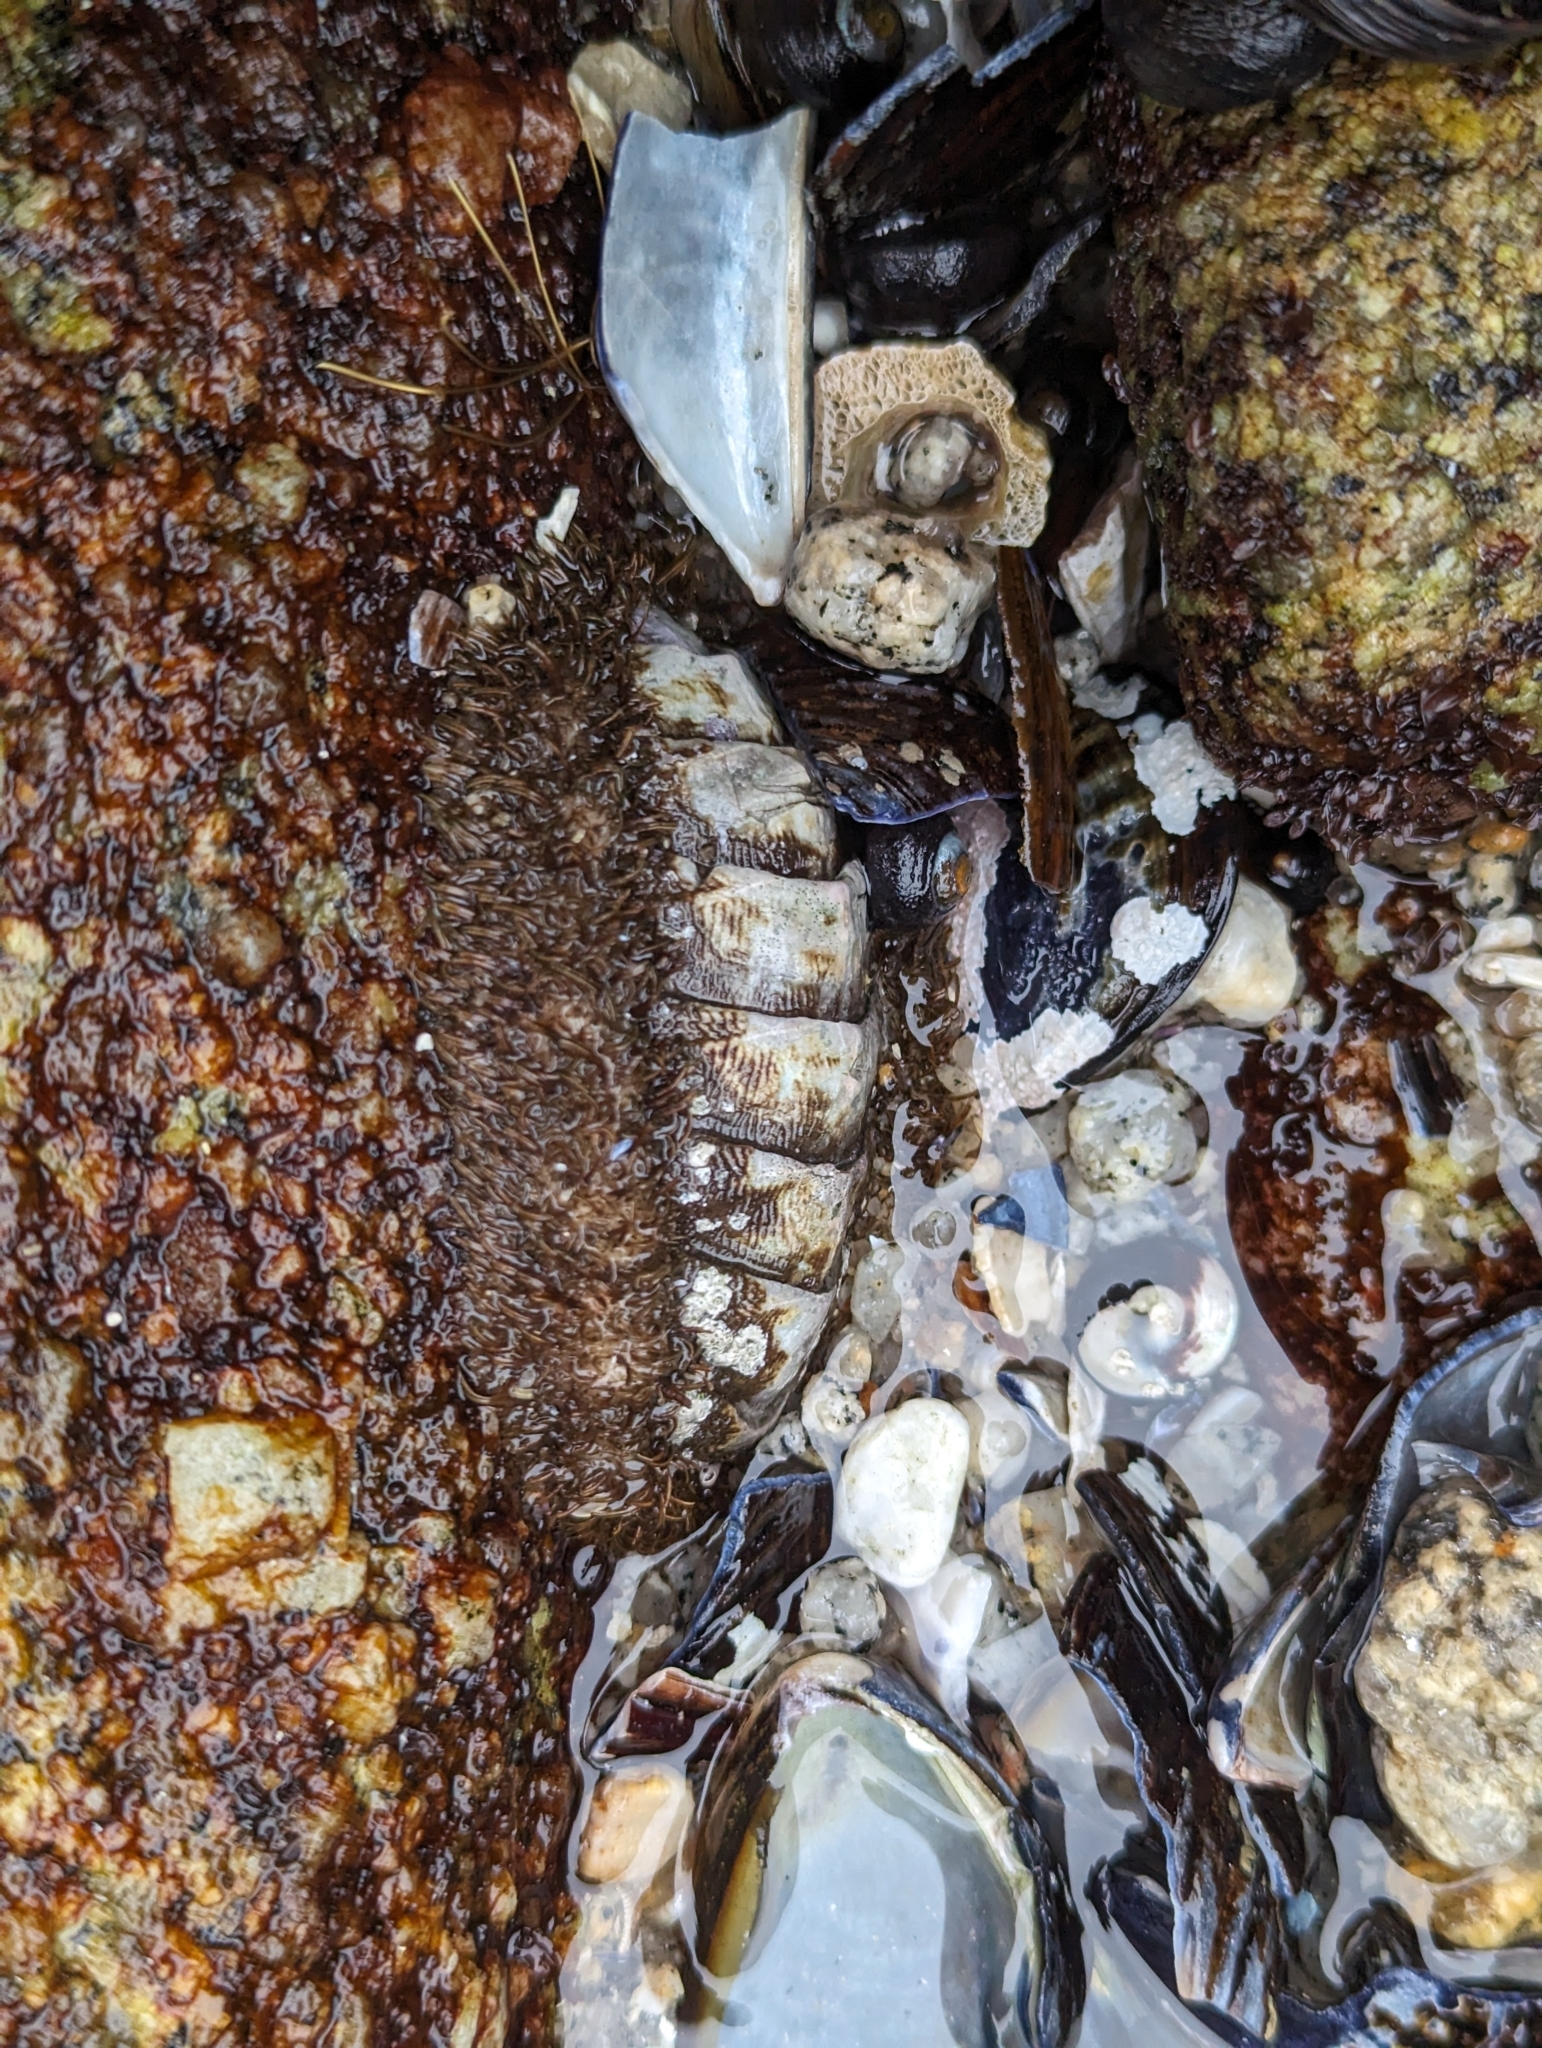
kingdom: Animalia
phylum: Mollusca
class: Polyplacophora
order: Chitonida
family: Mopaliidae
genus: Mopalia
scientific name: Mopalia muscosa
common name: Mossy chiton
